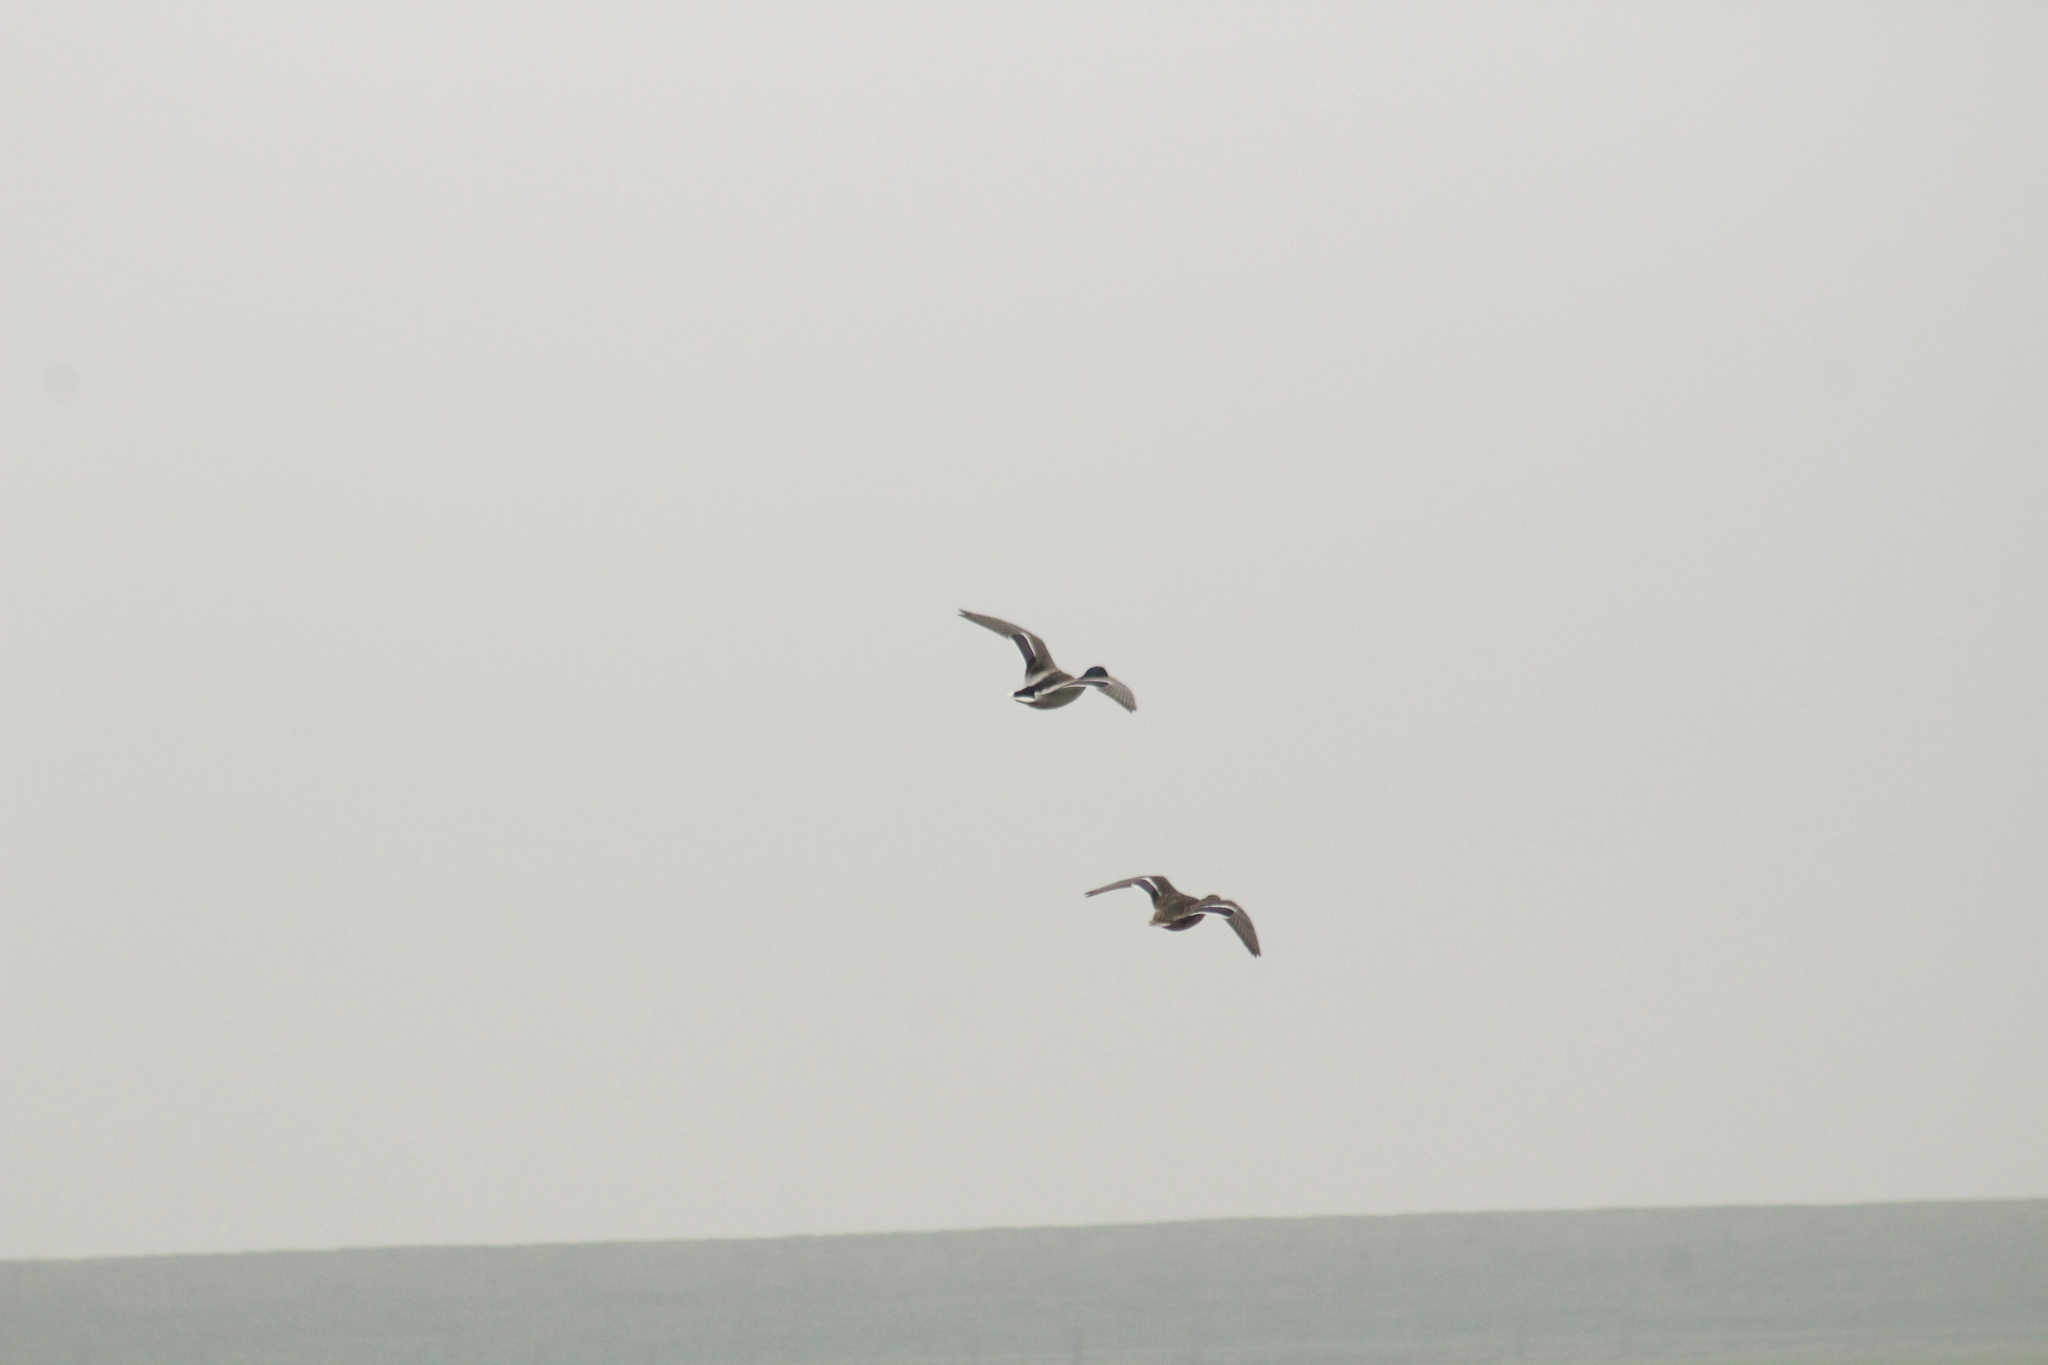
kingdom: Animalia
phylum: Chordata
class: Aves
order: Anseriformes
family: Anatidae
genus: Anas
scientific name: Anas platyrhynchos
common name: Mallard
